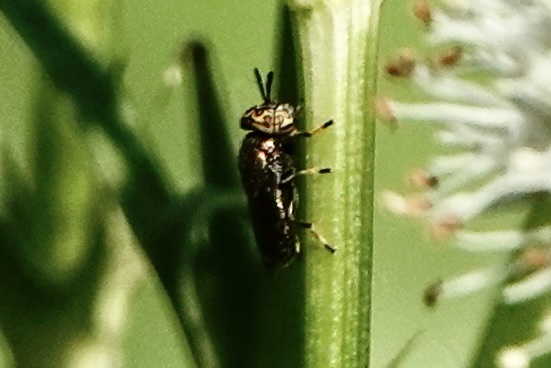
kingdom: Animalia
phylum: Arthropoda
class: Insecta
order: Diptera
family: Syrphidae
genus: Orthonevra
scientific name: Orthonevra nitida
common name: Wavy mucksucker
